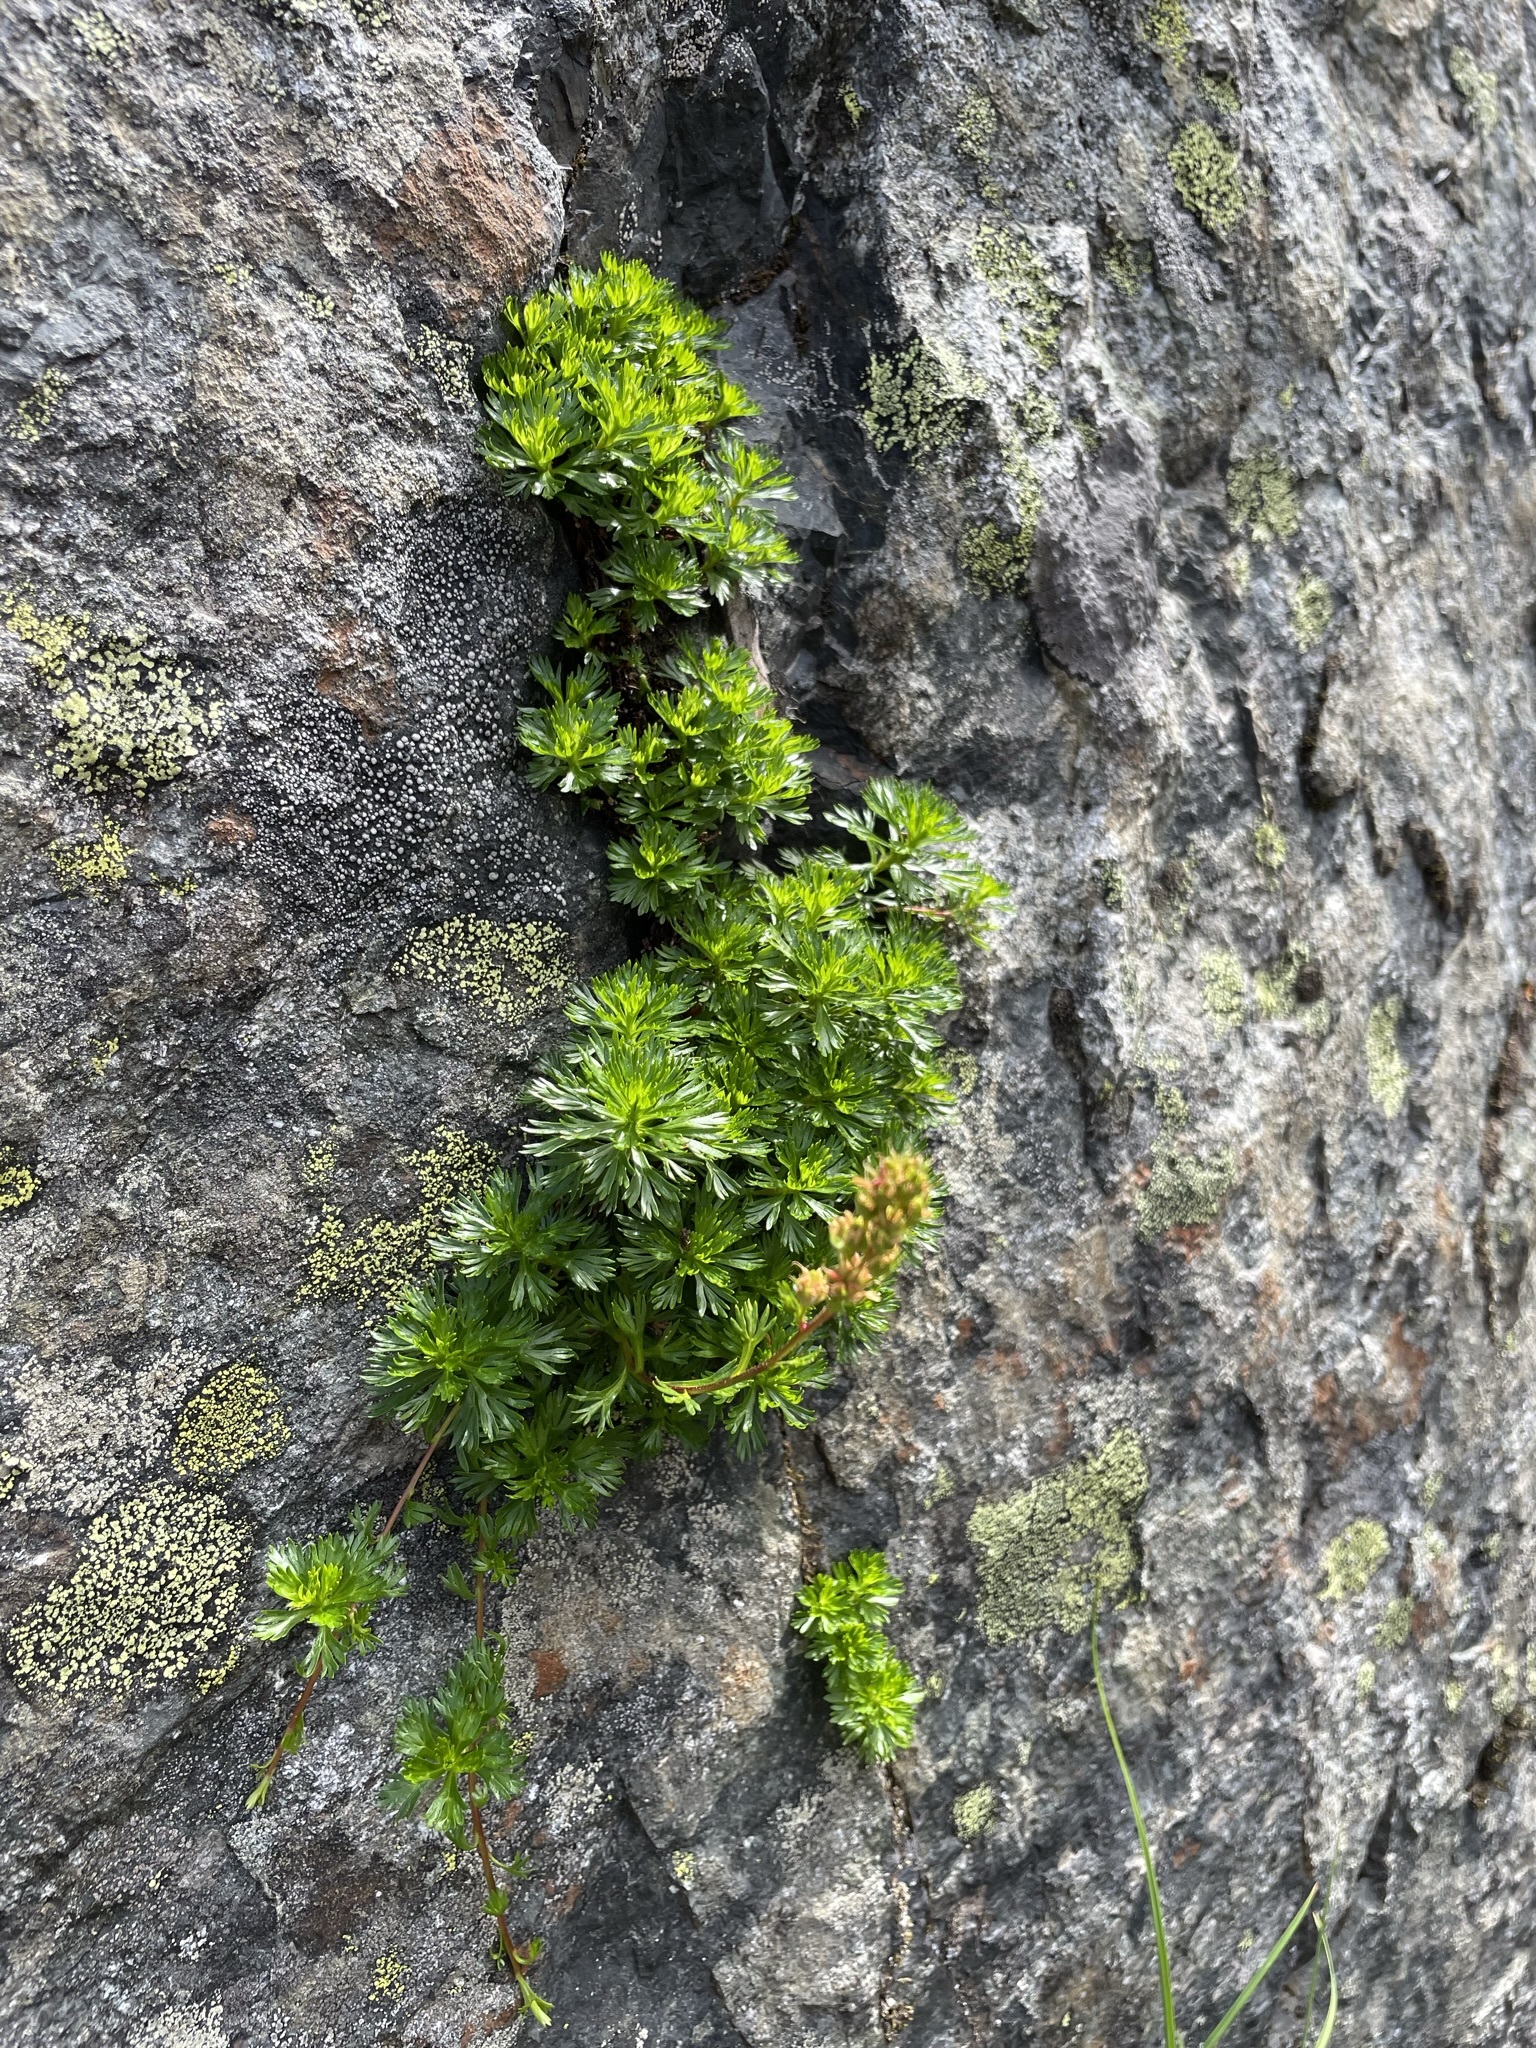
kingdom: Plantae
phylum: Tracheophyta
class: Magnoliopsida
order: Rosales
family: Rosaceae
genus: Luetkea
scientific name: Luetkea pectinata
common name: Partridgefoot
